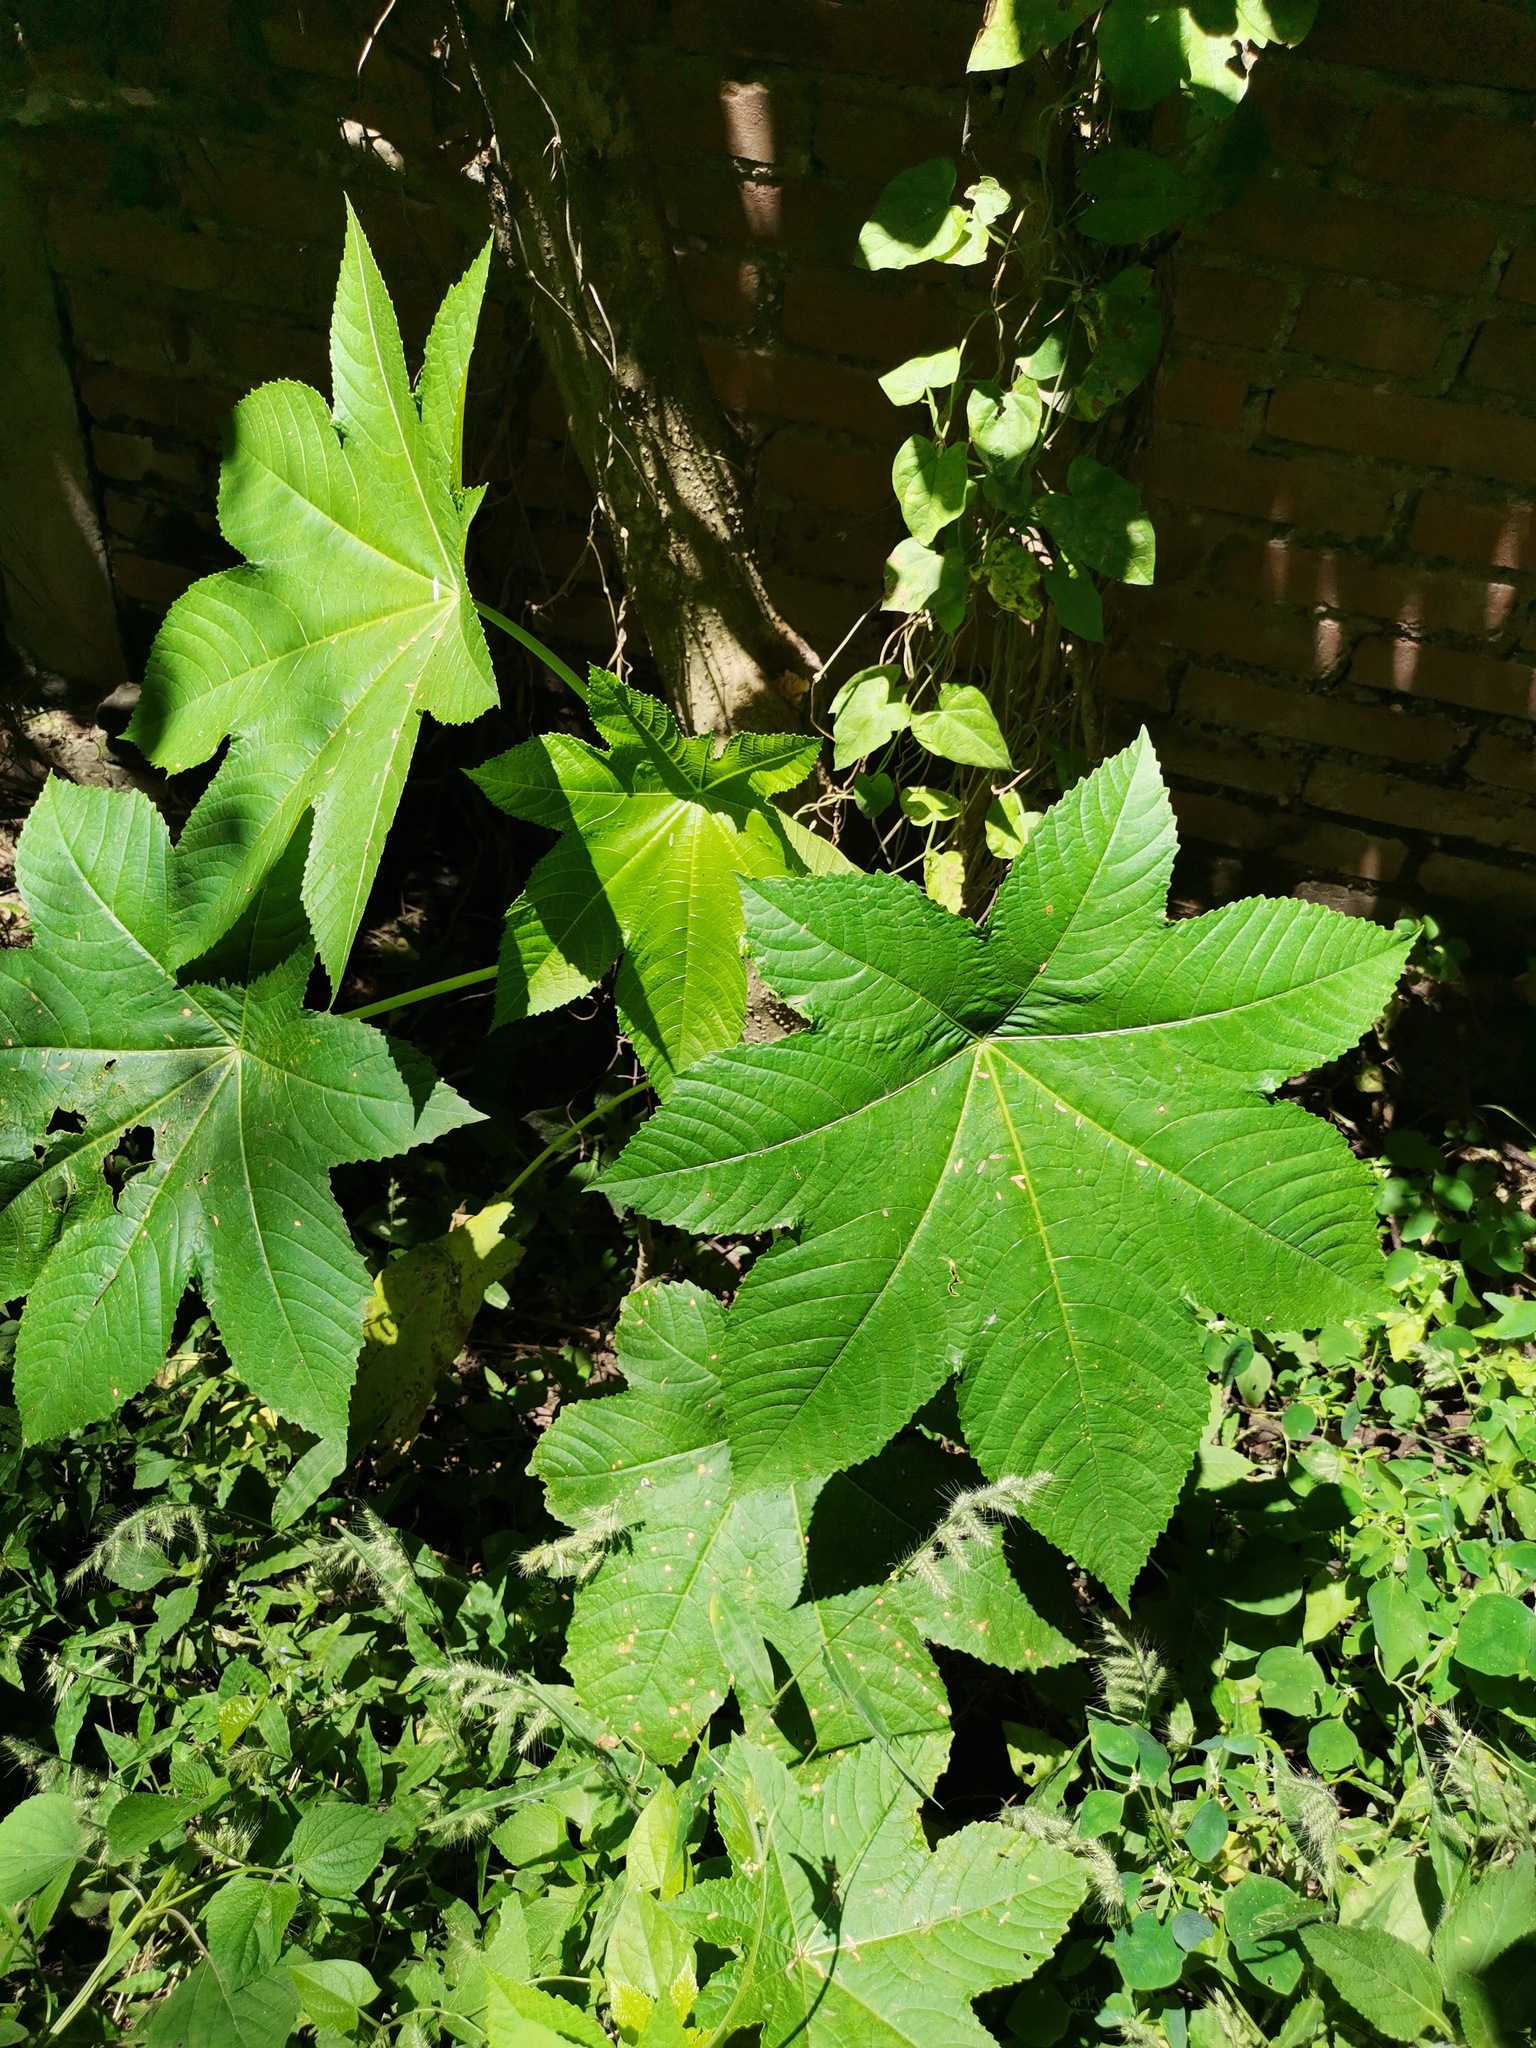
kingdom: Plantae
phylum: Tracheophyta
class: Magnoliopsida
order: Malpighiales
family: Euphorbiaceae
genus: Ricinus
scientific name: Ricinus communis
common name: Castor-oil-plant
